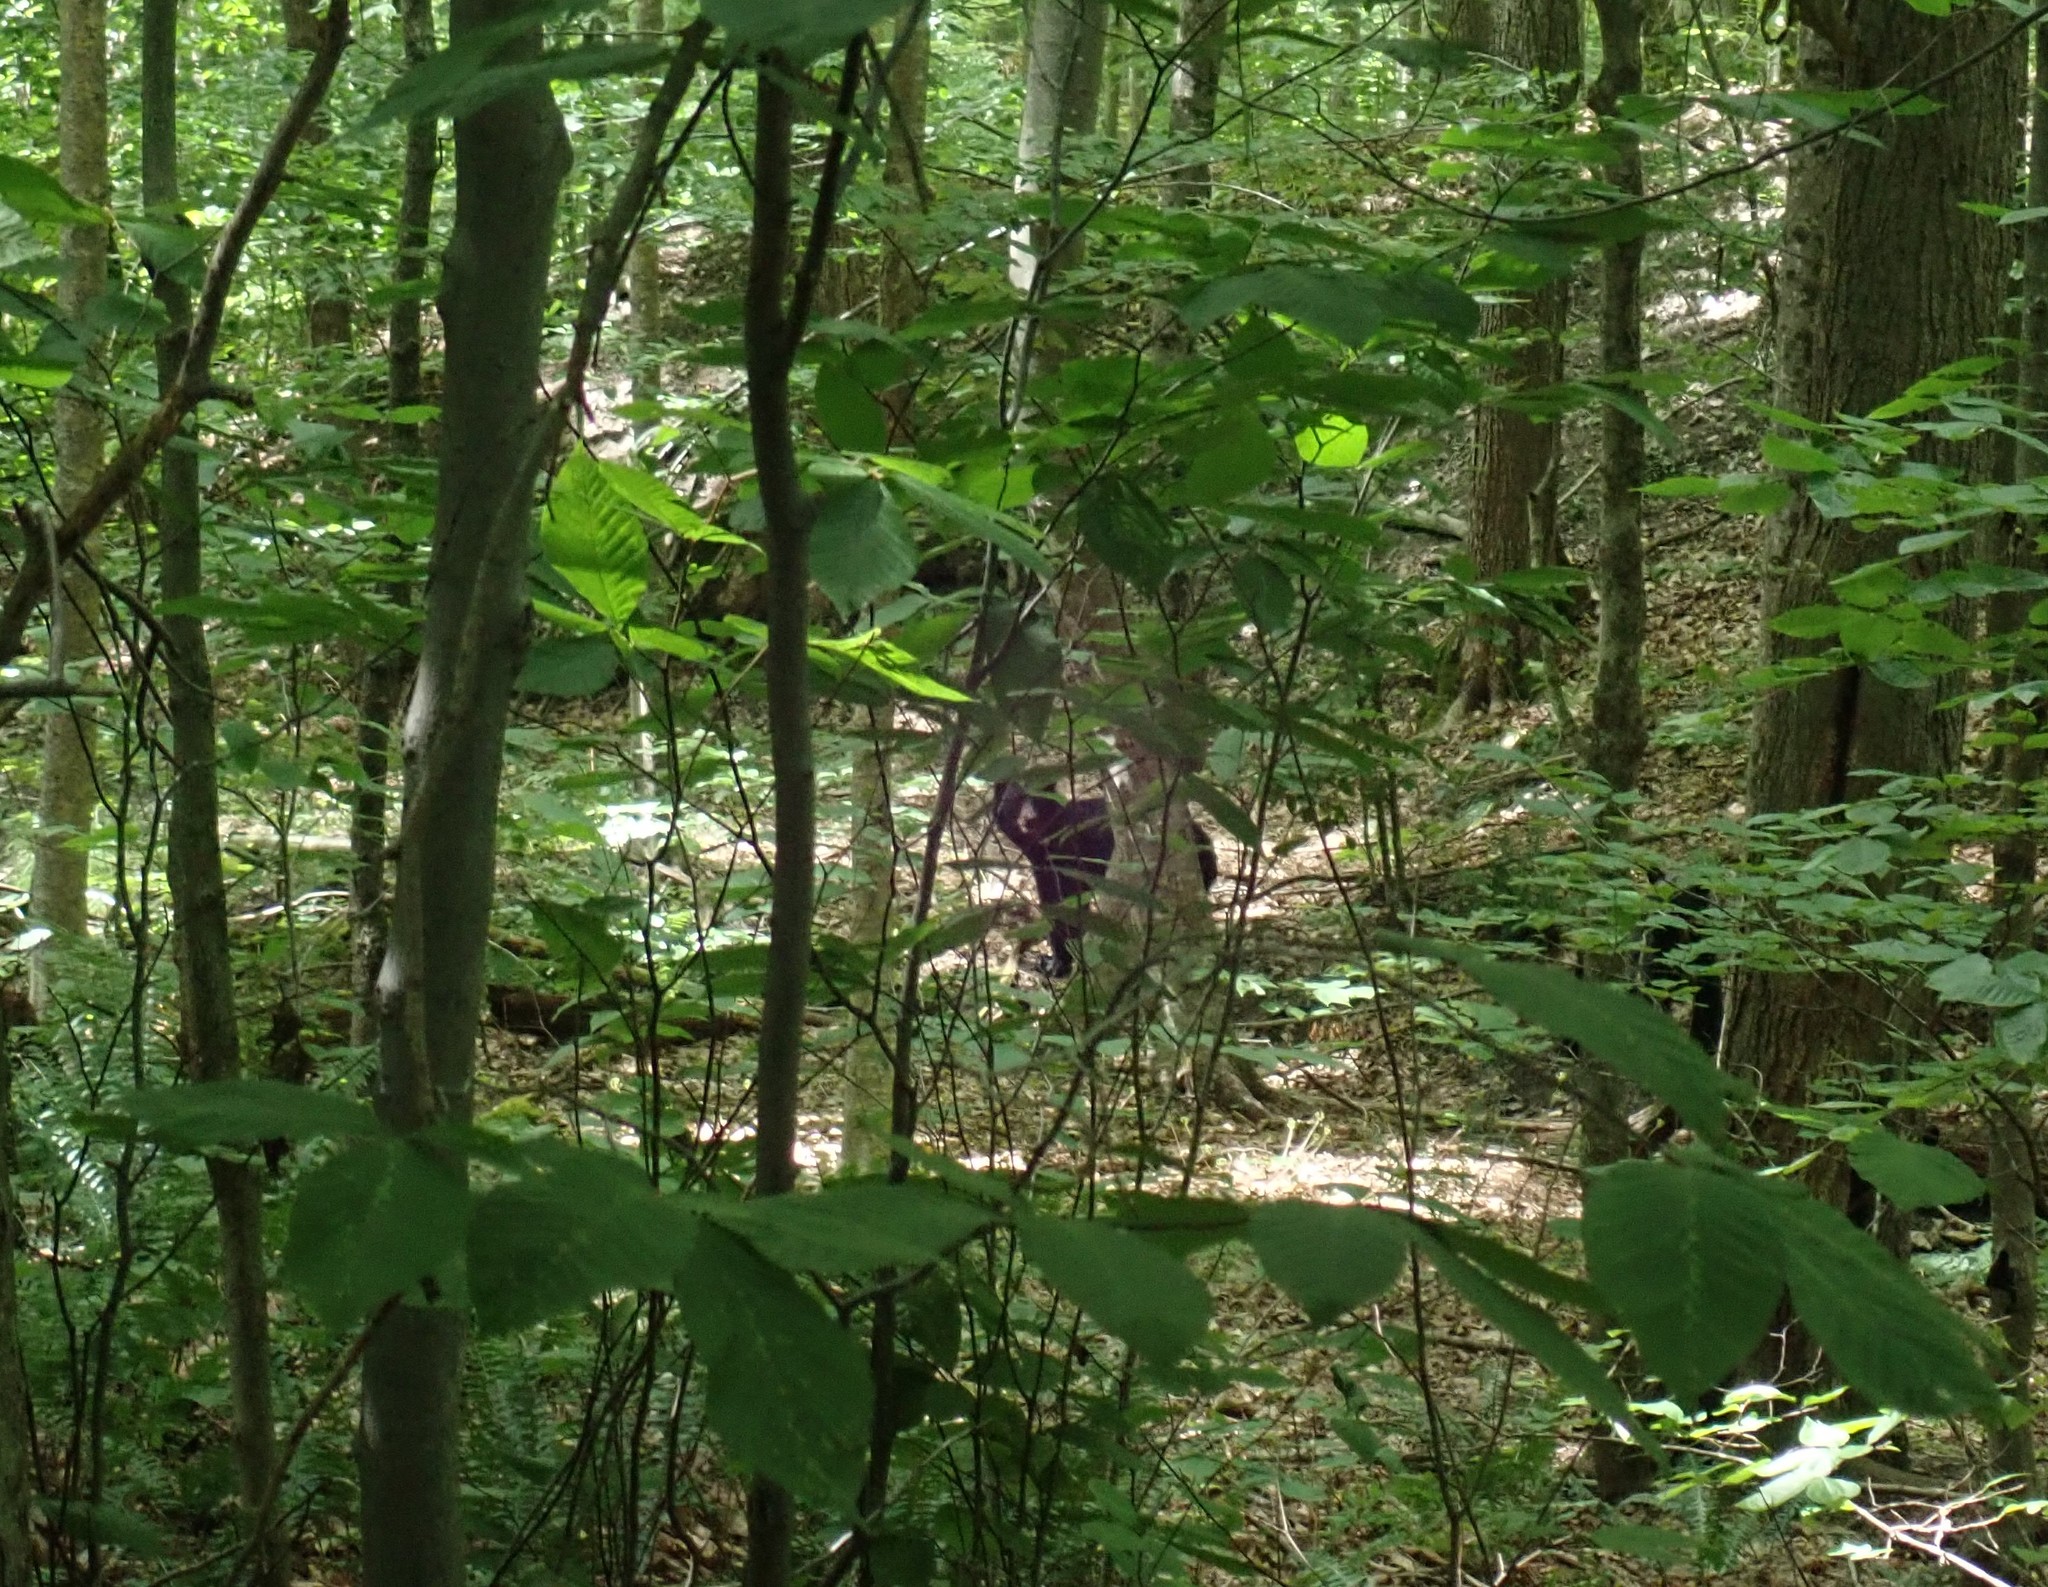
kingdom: Animalia
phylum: Chordata
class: Mammalia
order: Carnivora
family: Ursidae
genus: Ursus
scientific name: Ursus americanus
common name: American black bear
